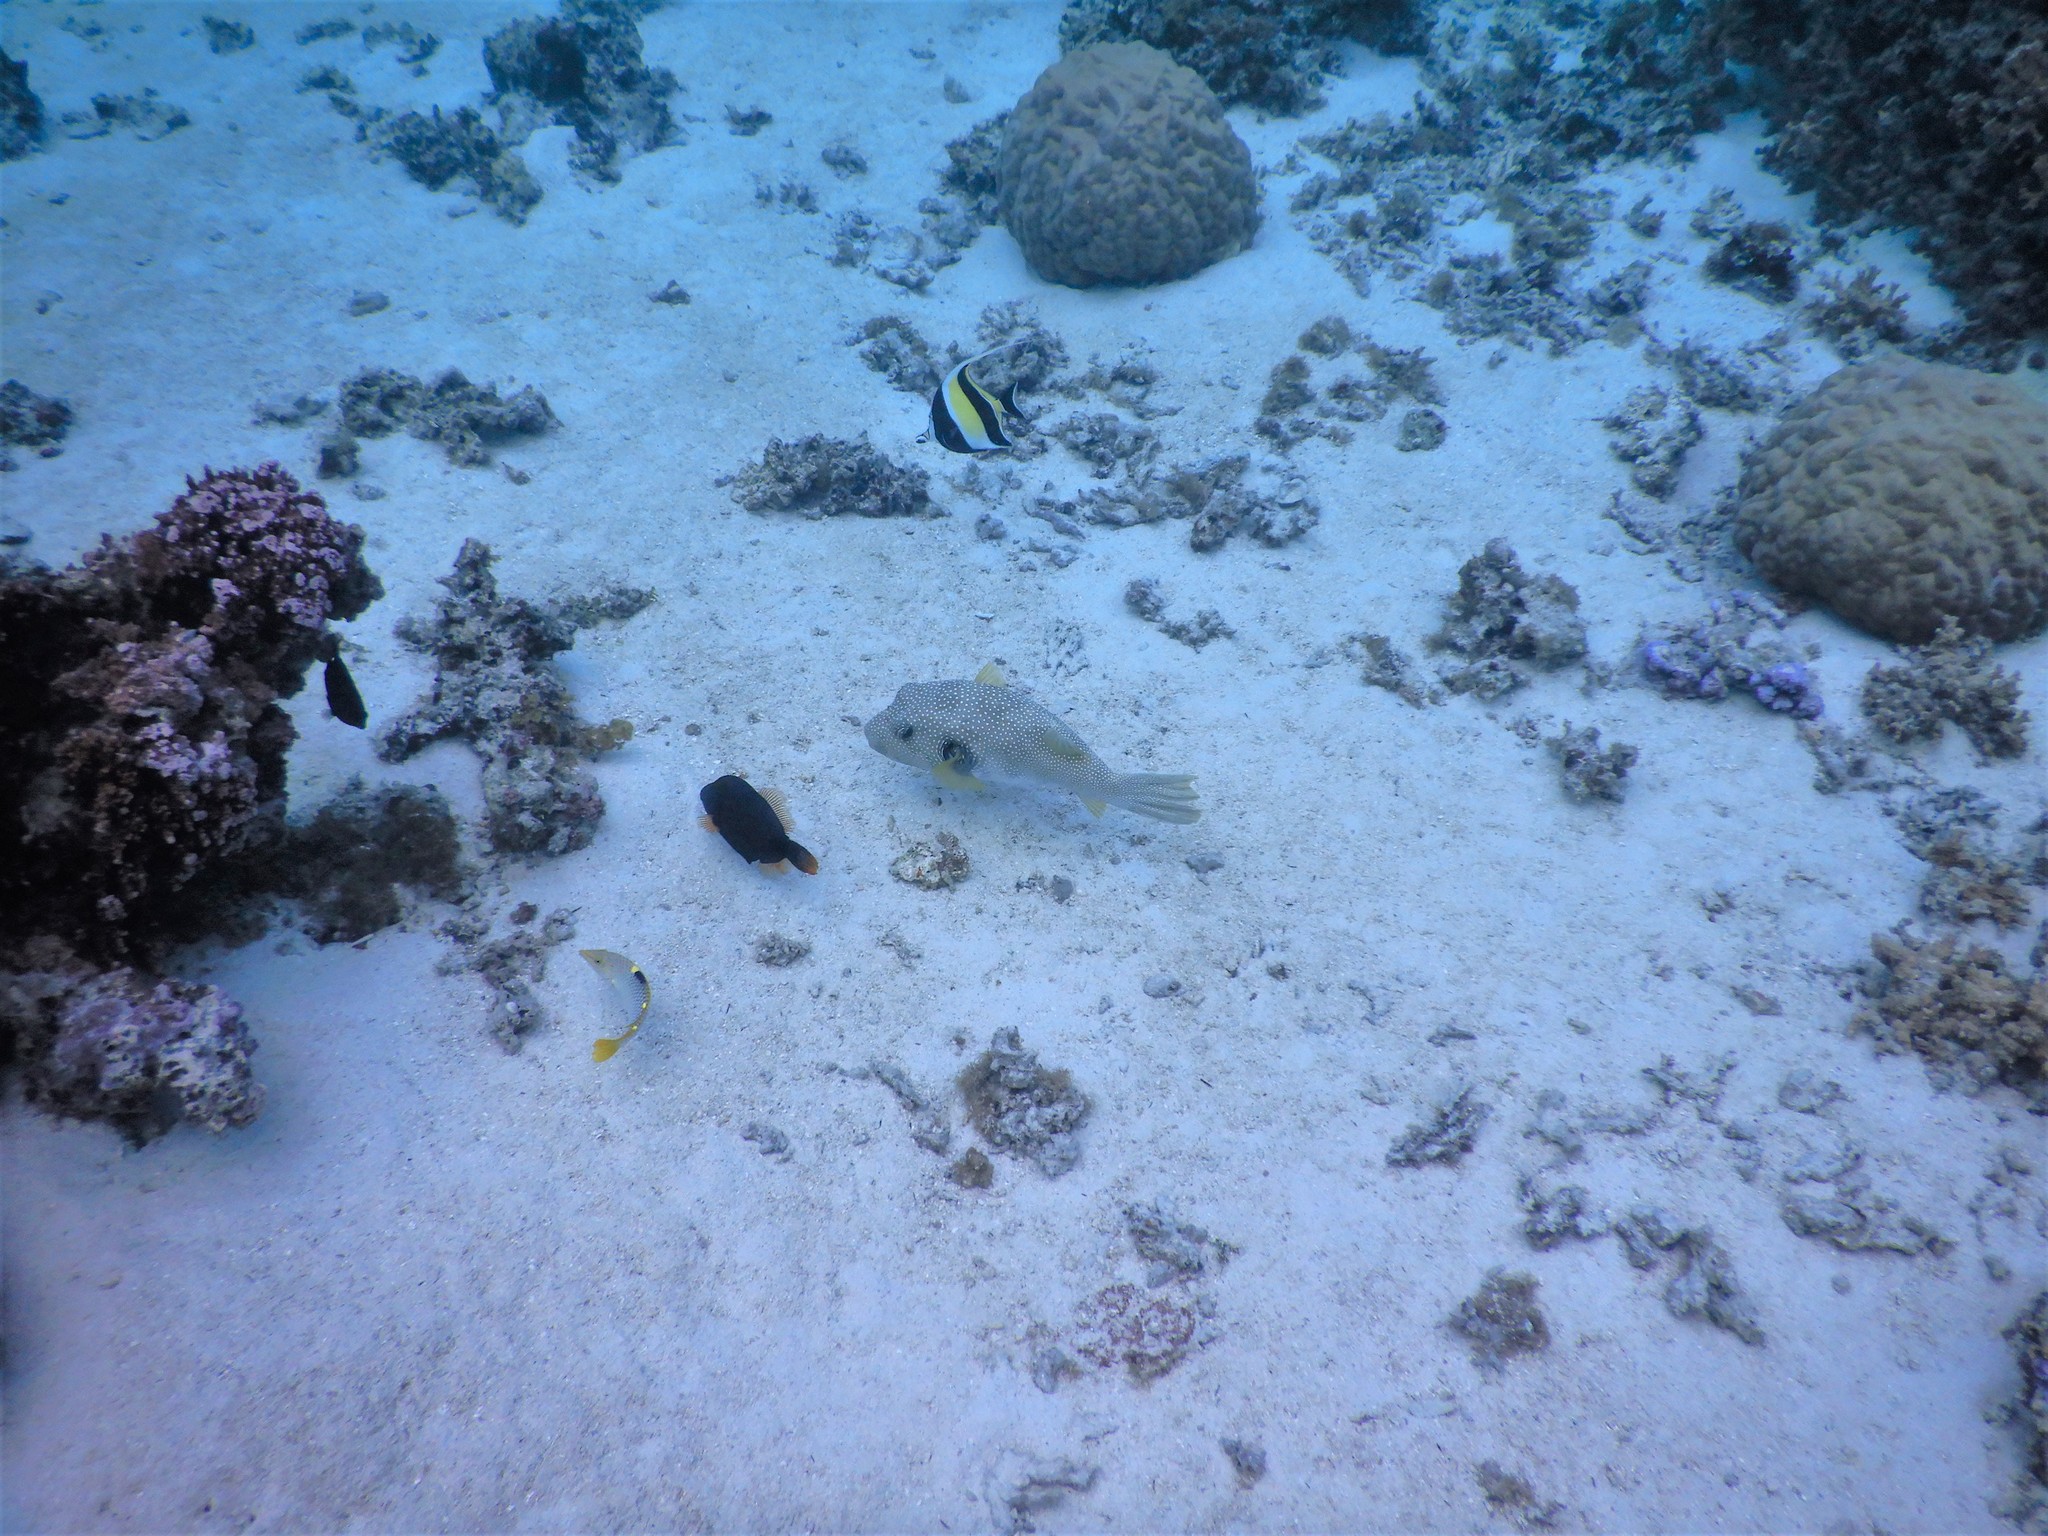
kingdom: Animalia
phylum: Chordata
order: Tetraodontiformes
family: Tetraodontidae
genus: Arothron
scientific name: Arothron hispidus
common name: Stripebelly puffer
